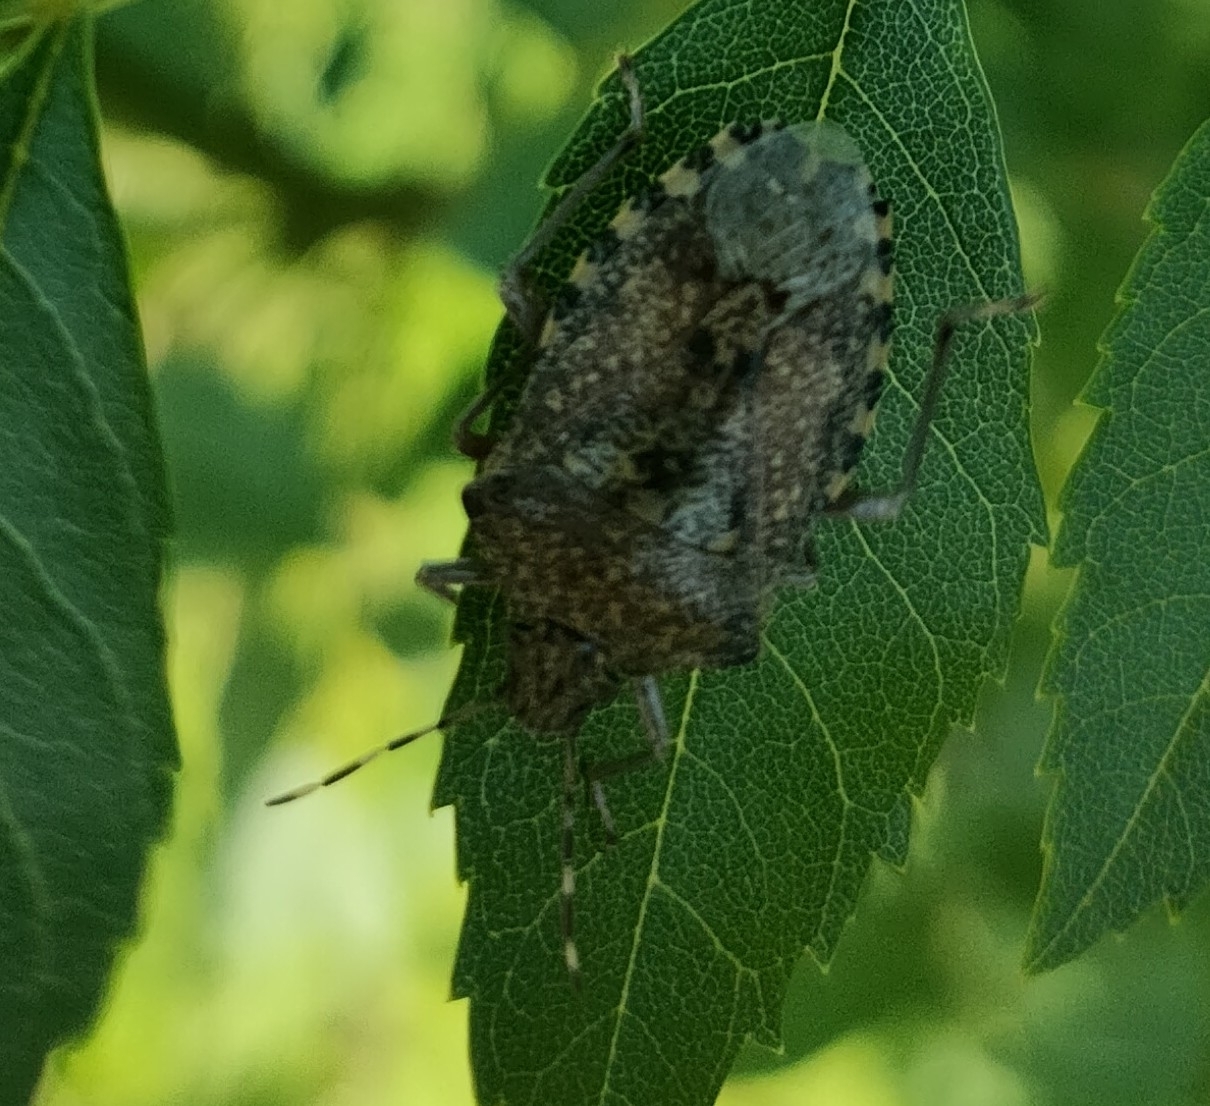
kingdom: Animalia
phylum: Arthropoda
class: Insecta
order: Hemiptera
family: Pentatomidae
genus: Rhaphigaster
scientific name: Rhaphigaster nebulosa
